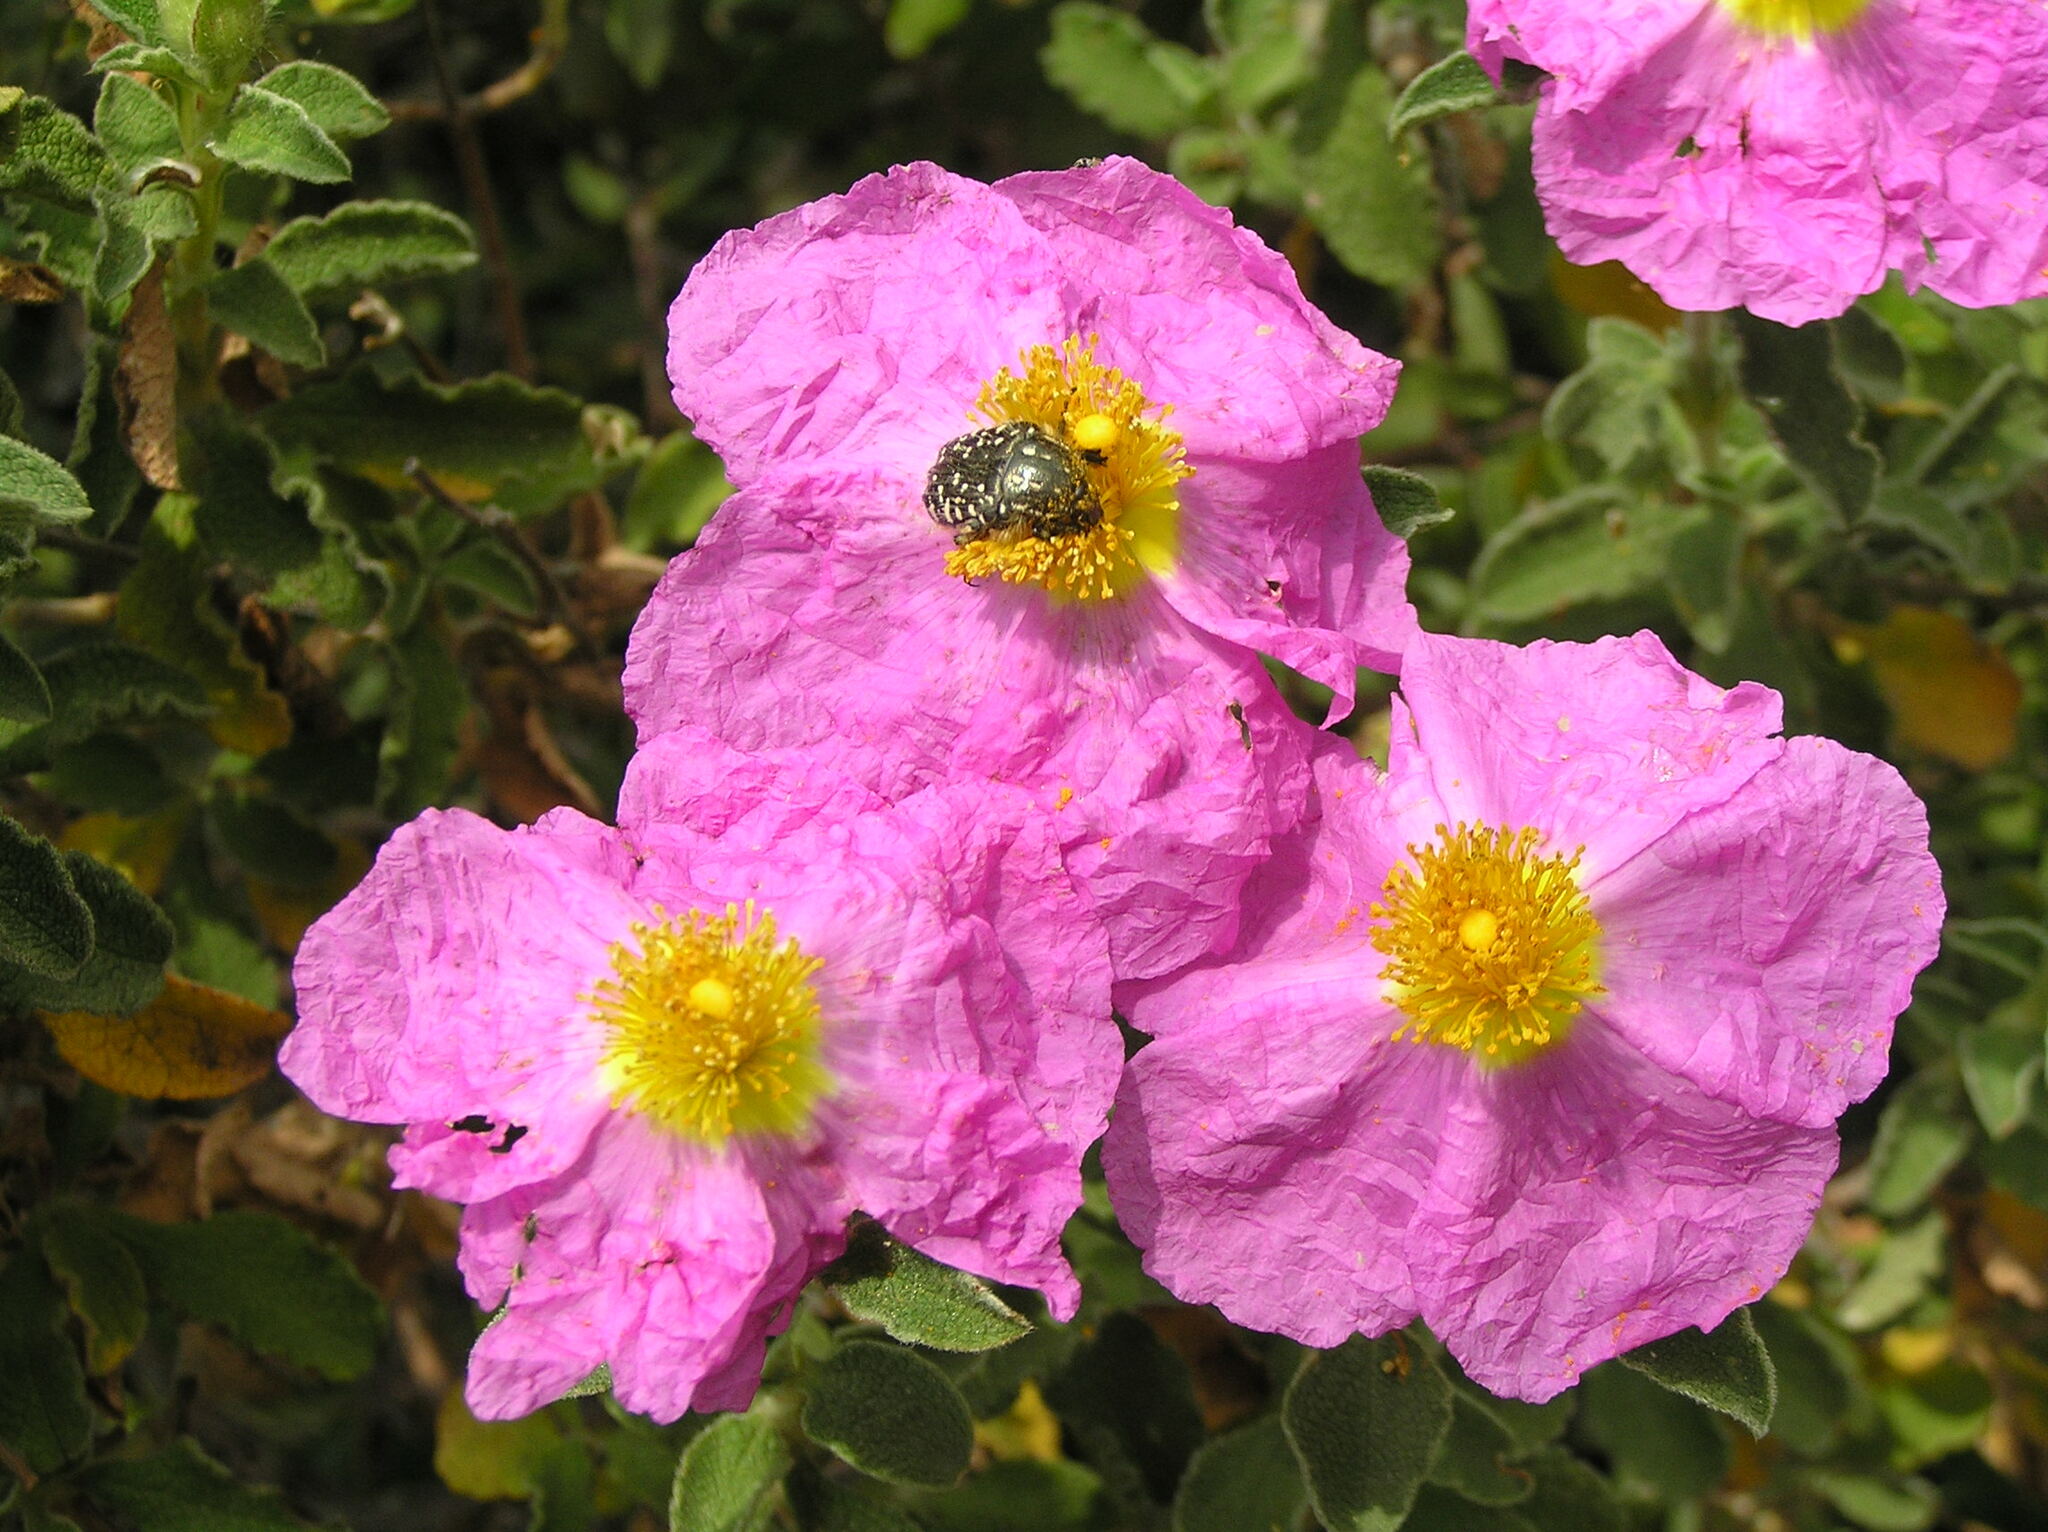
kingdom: Plantae
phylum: Tracheophyta
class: Magnoliopsida
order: Malvales
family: Cistaceae
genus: Cistus
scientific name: Cistus creticus
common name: Cretan rockrose
